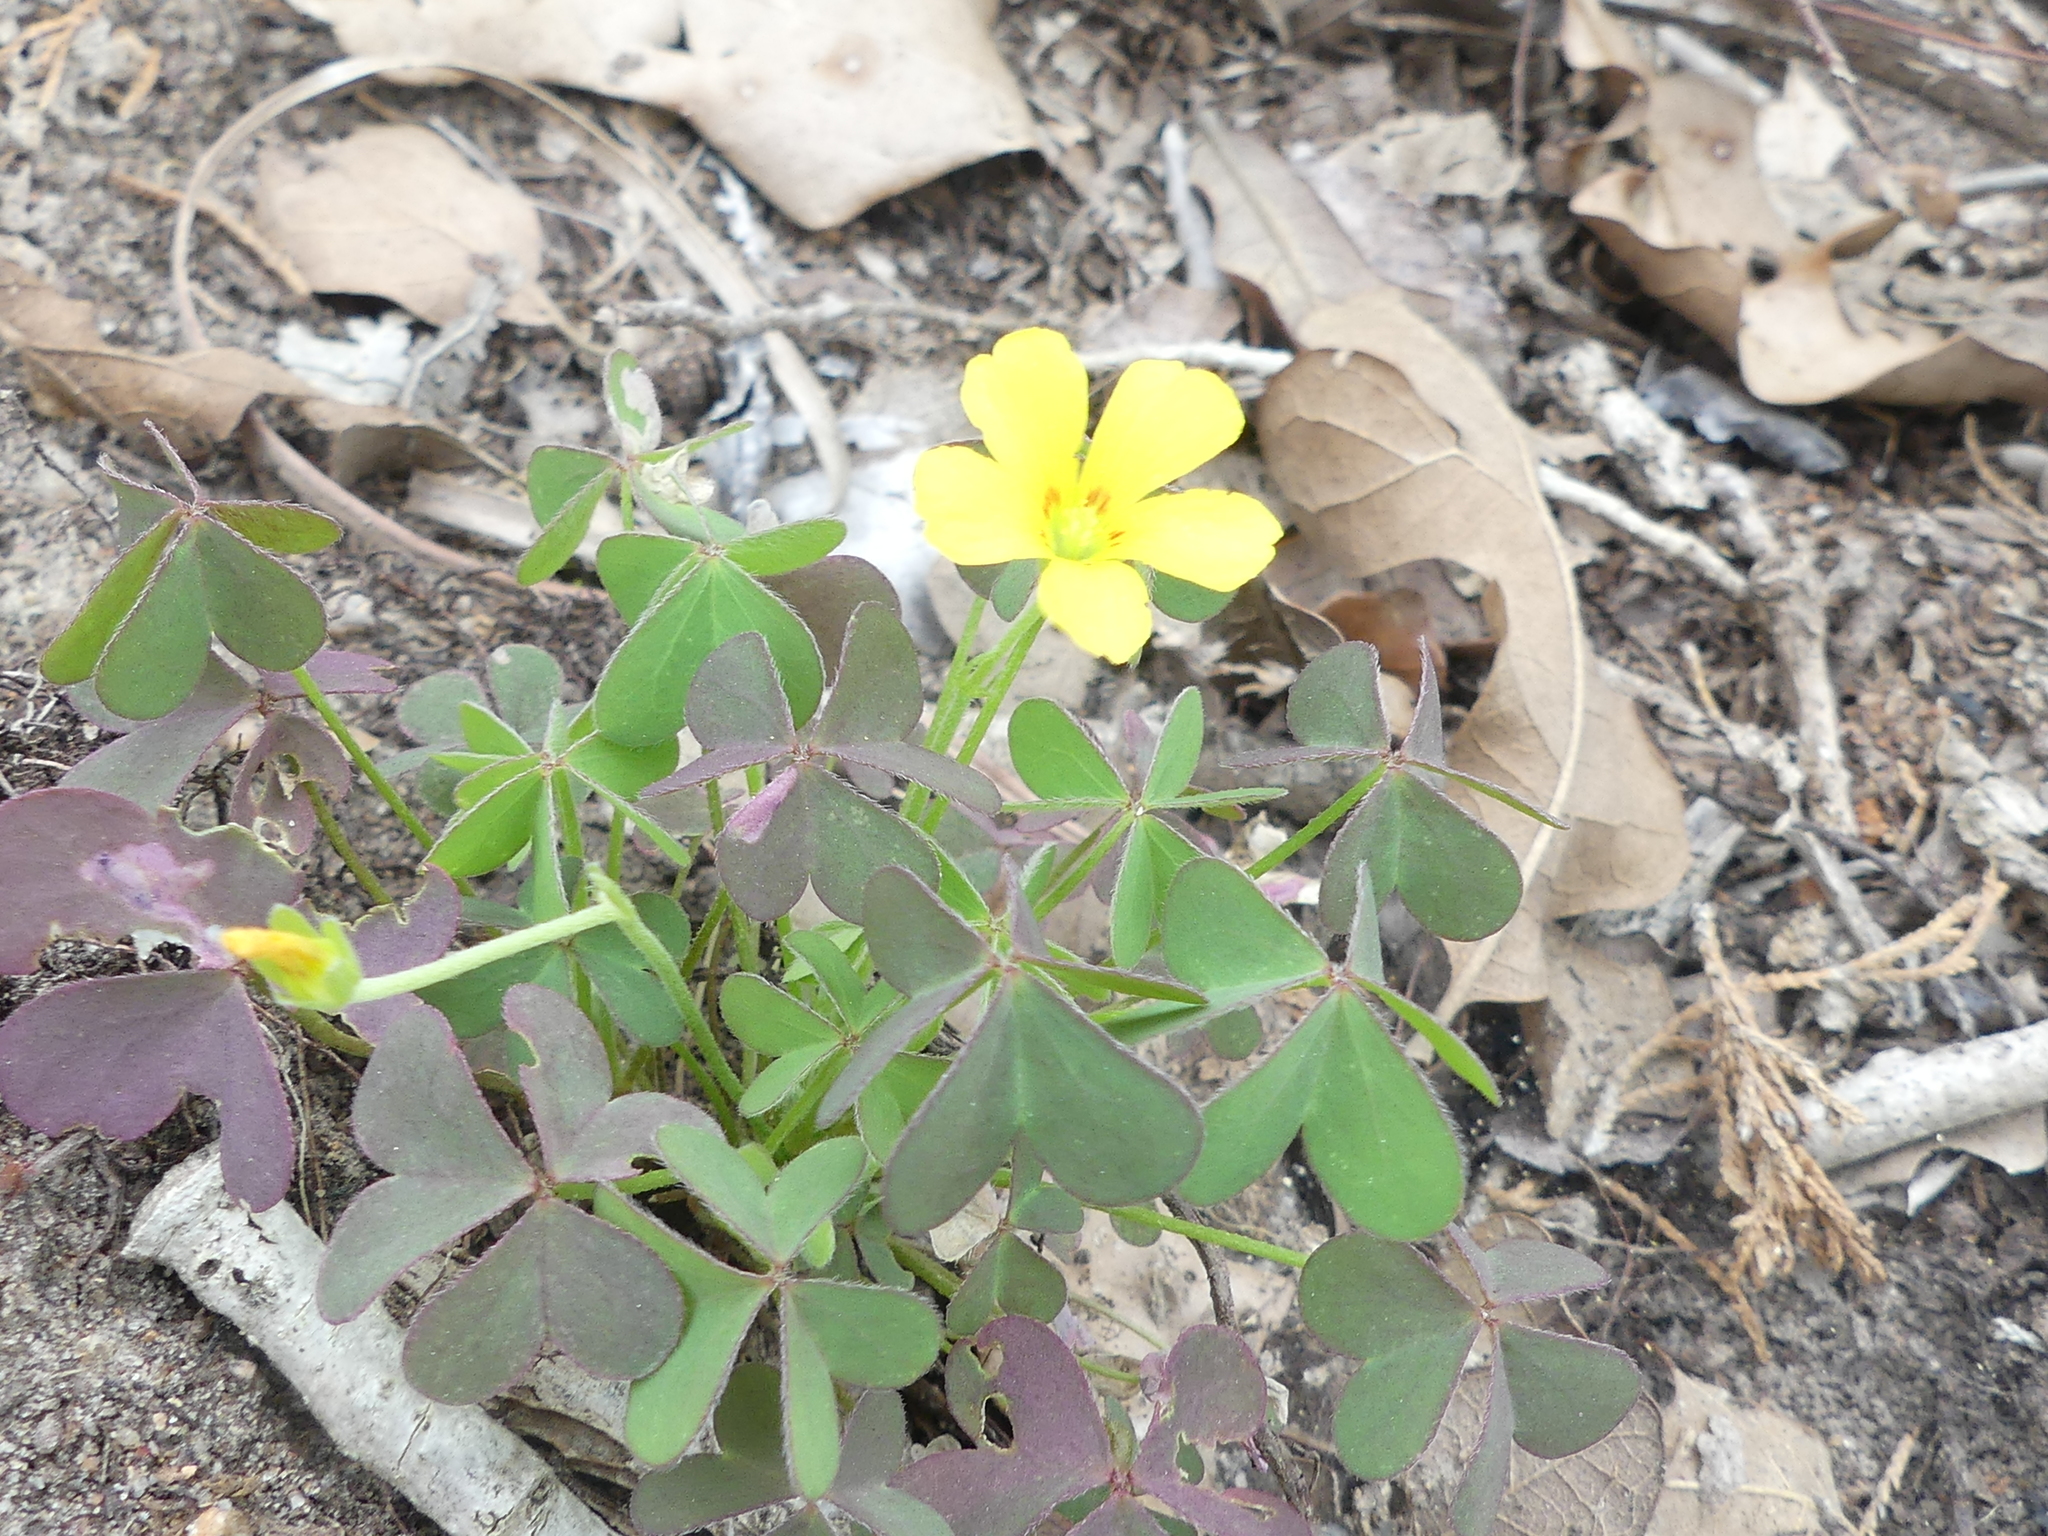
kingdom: Plantae
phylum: Tracheophyta
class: Magnoliopsida
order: Oxalidales
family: Oxalidaceae
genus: Oxalis
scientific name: Oxalis corniculata
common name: Procumbent yellow-sorrel
